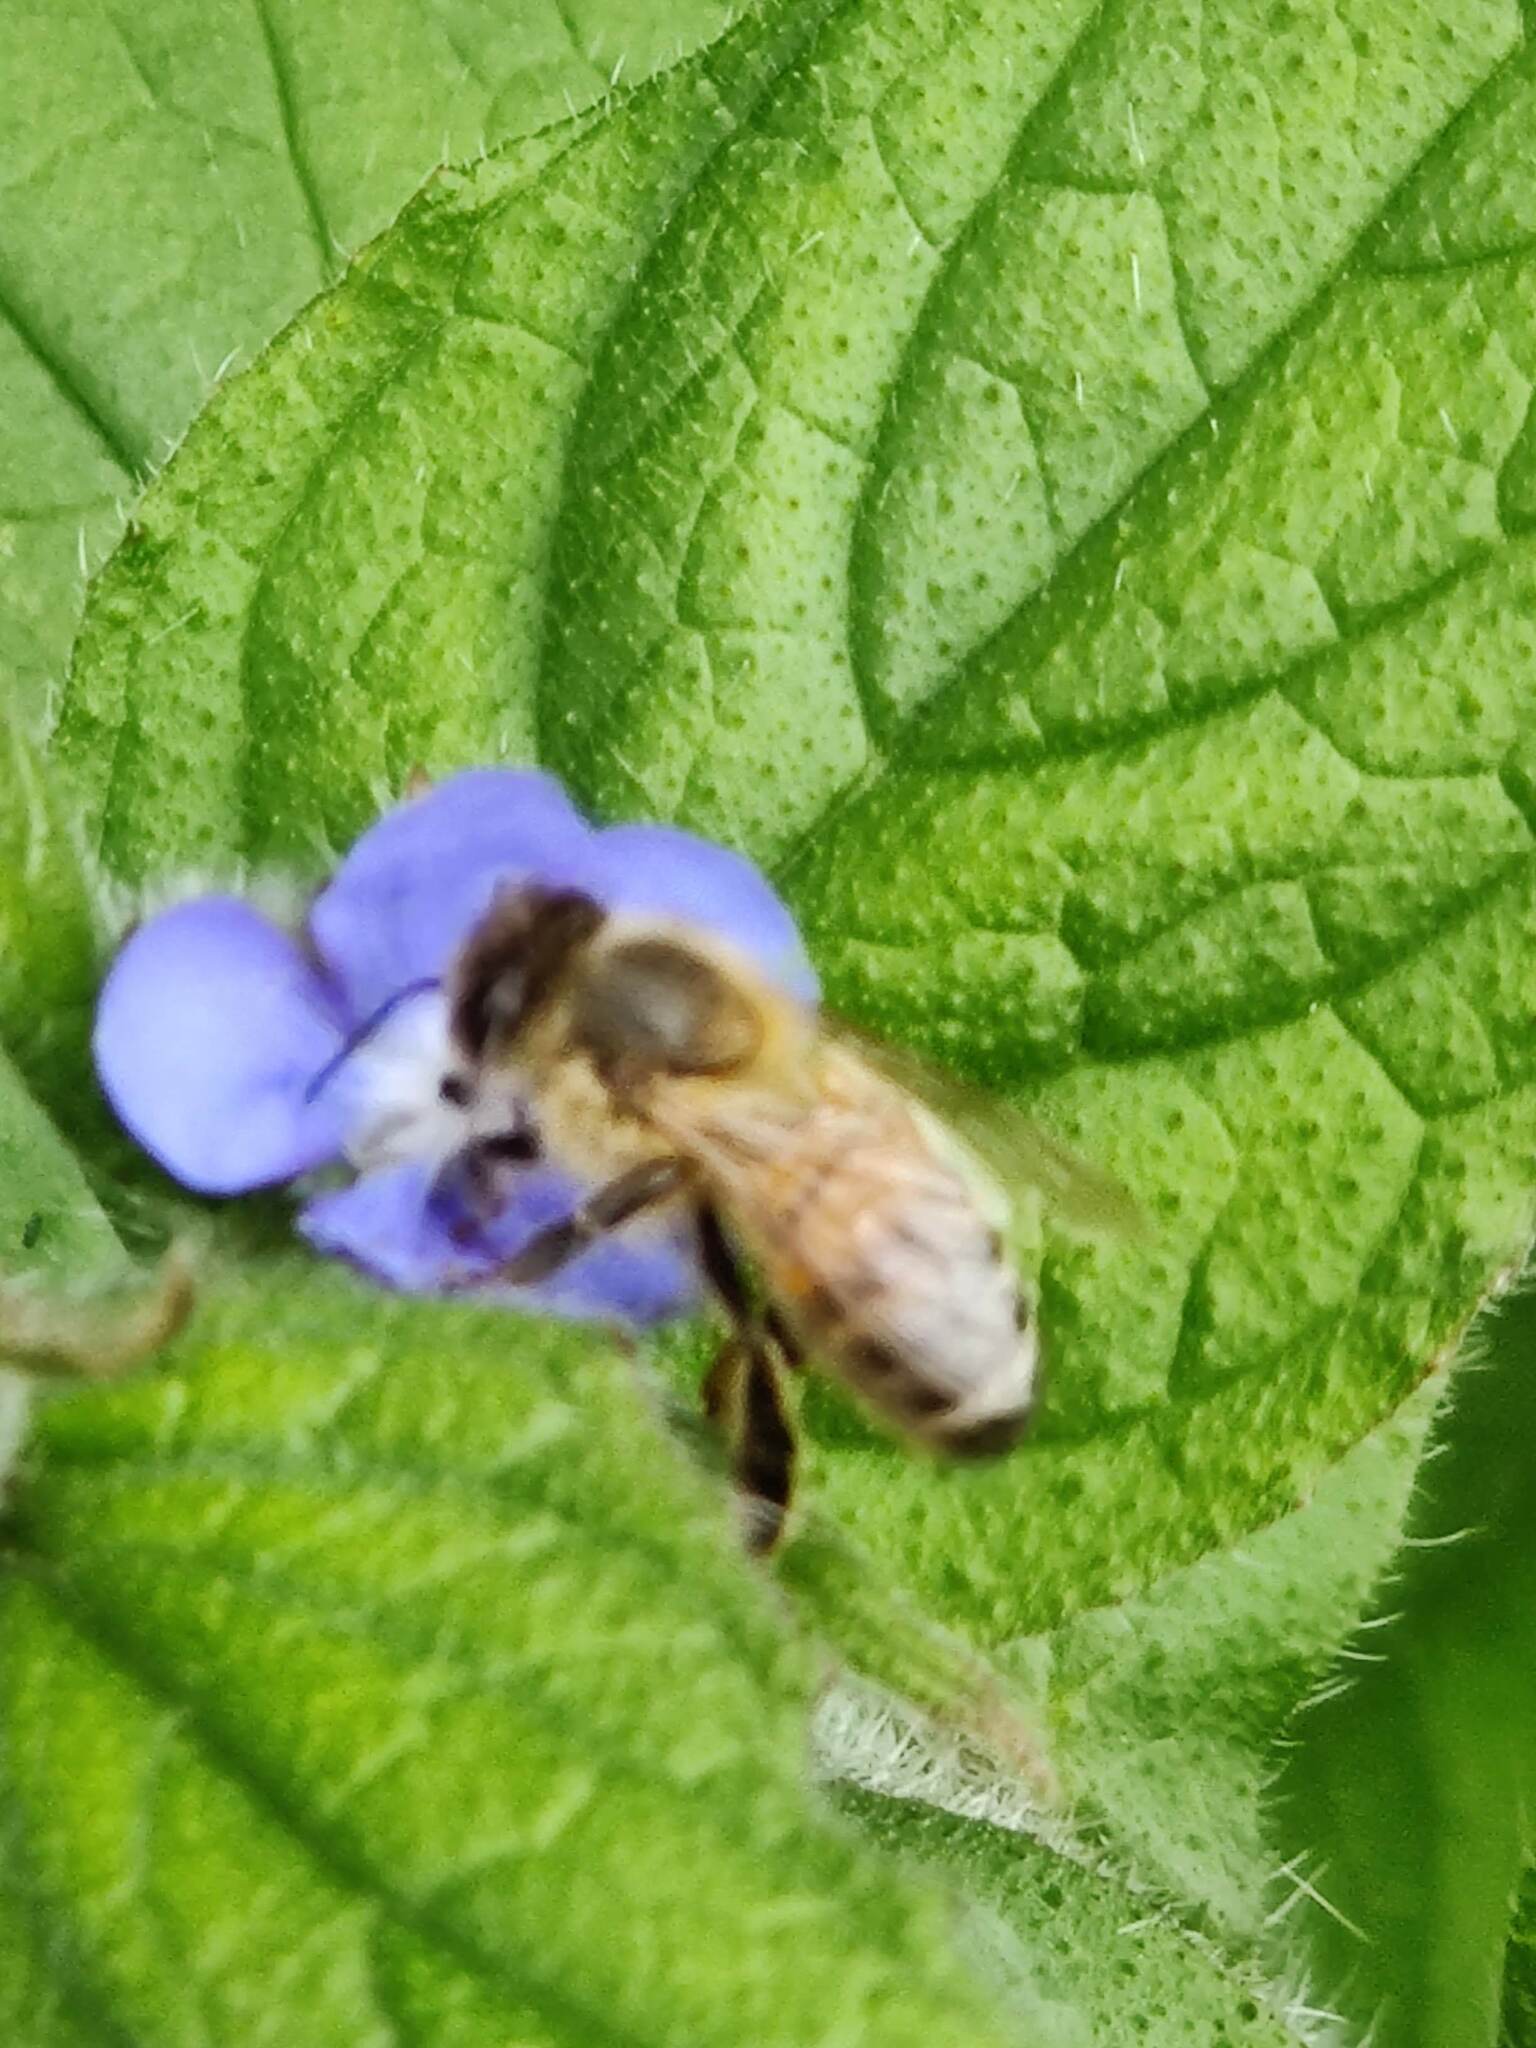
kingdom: Animalia
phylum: Arthropoda
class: Insecta
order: Hymenoptera
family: Apidae
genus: Apis
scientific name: Apis mellifera
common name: Honey bee
